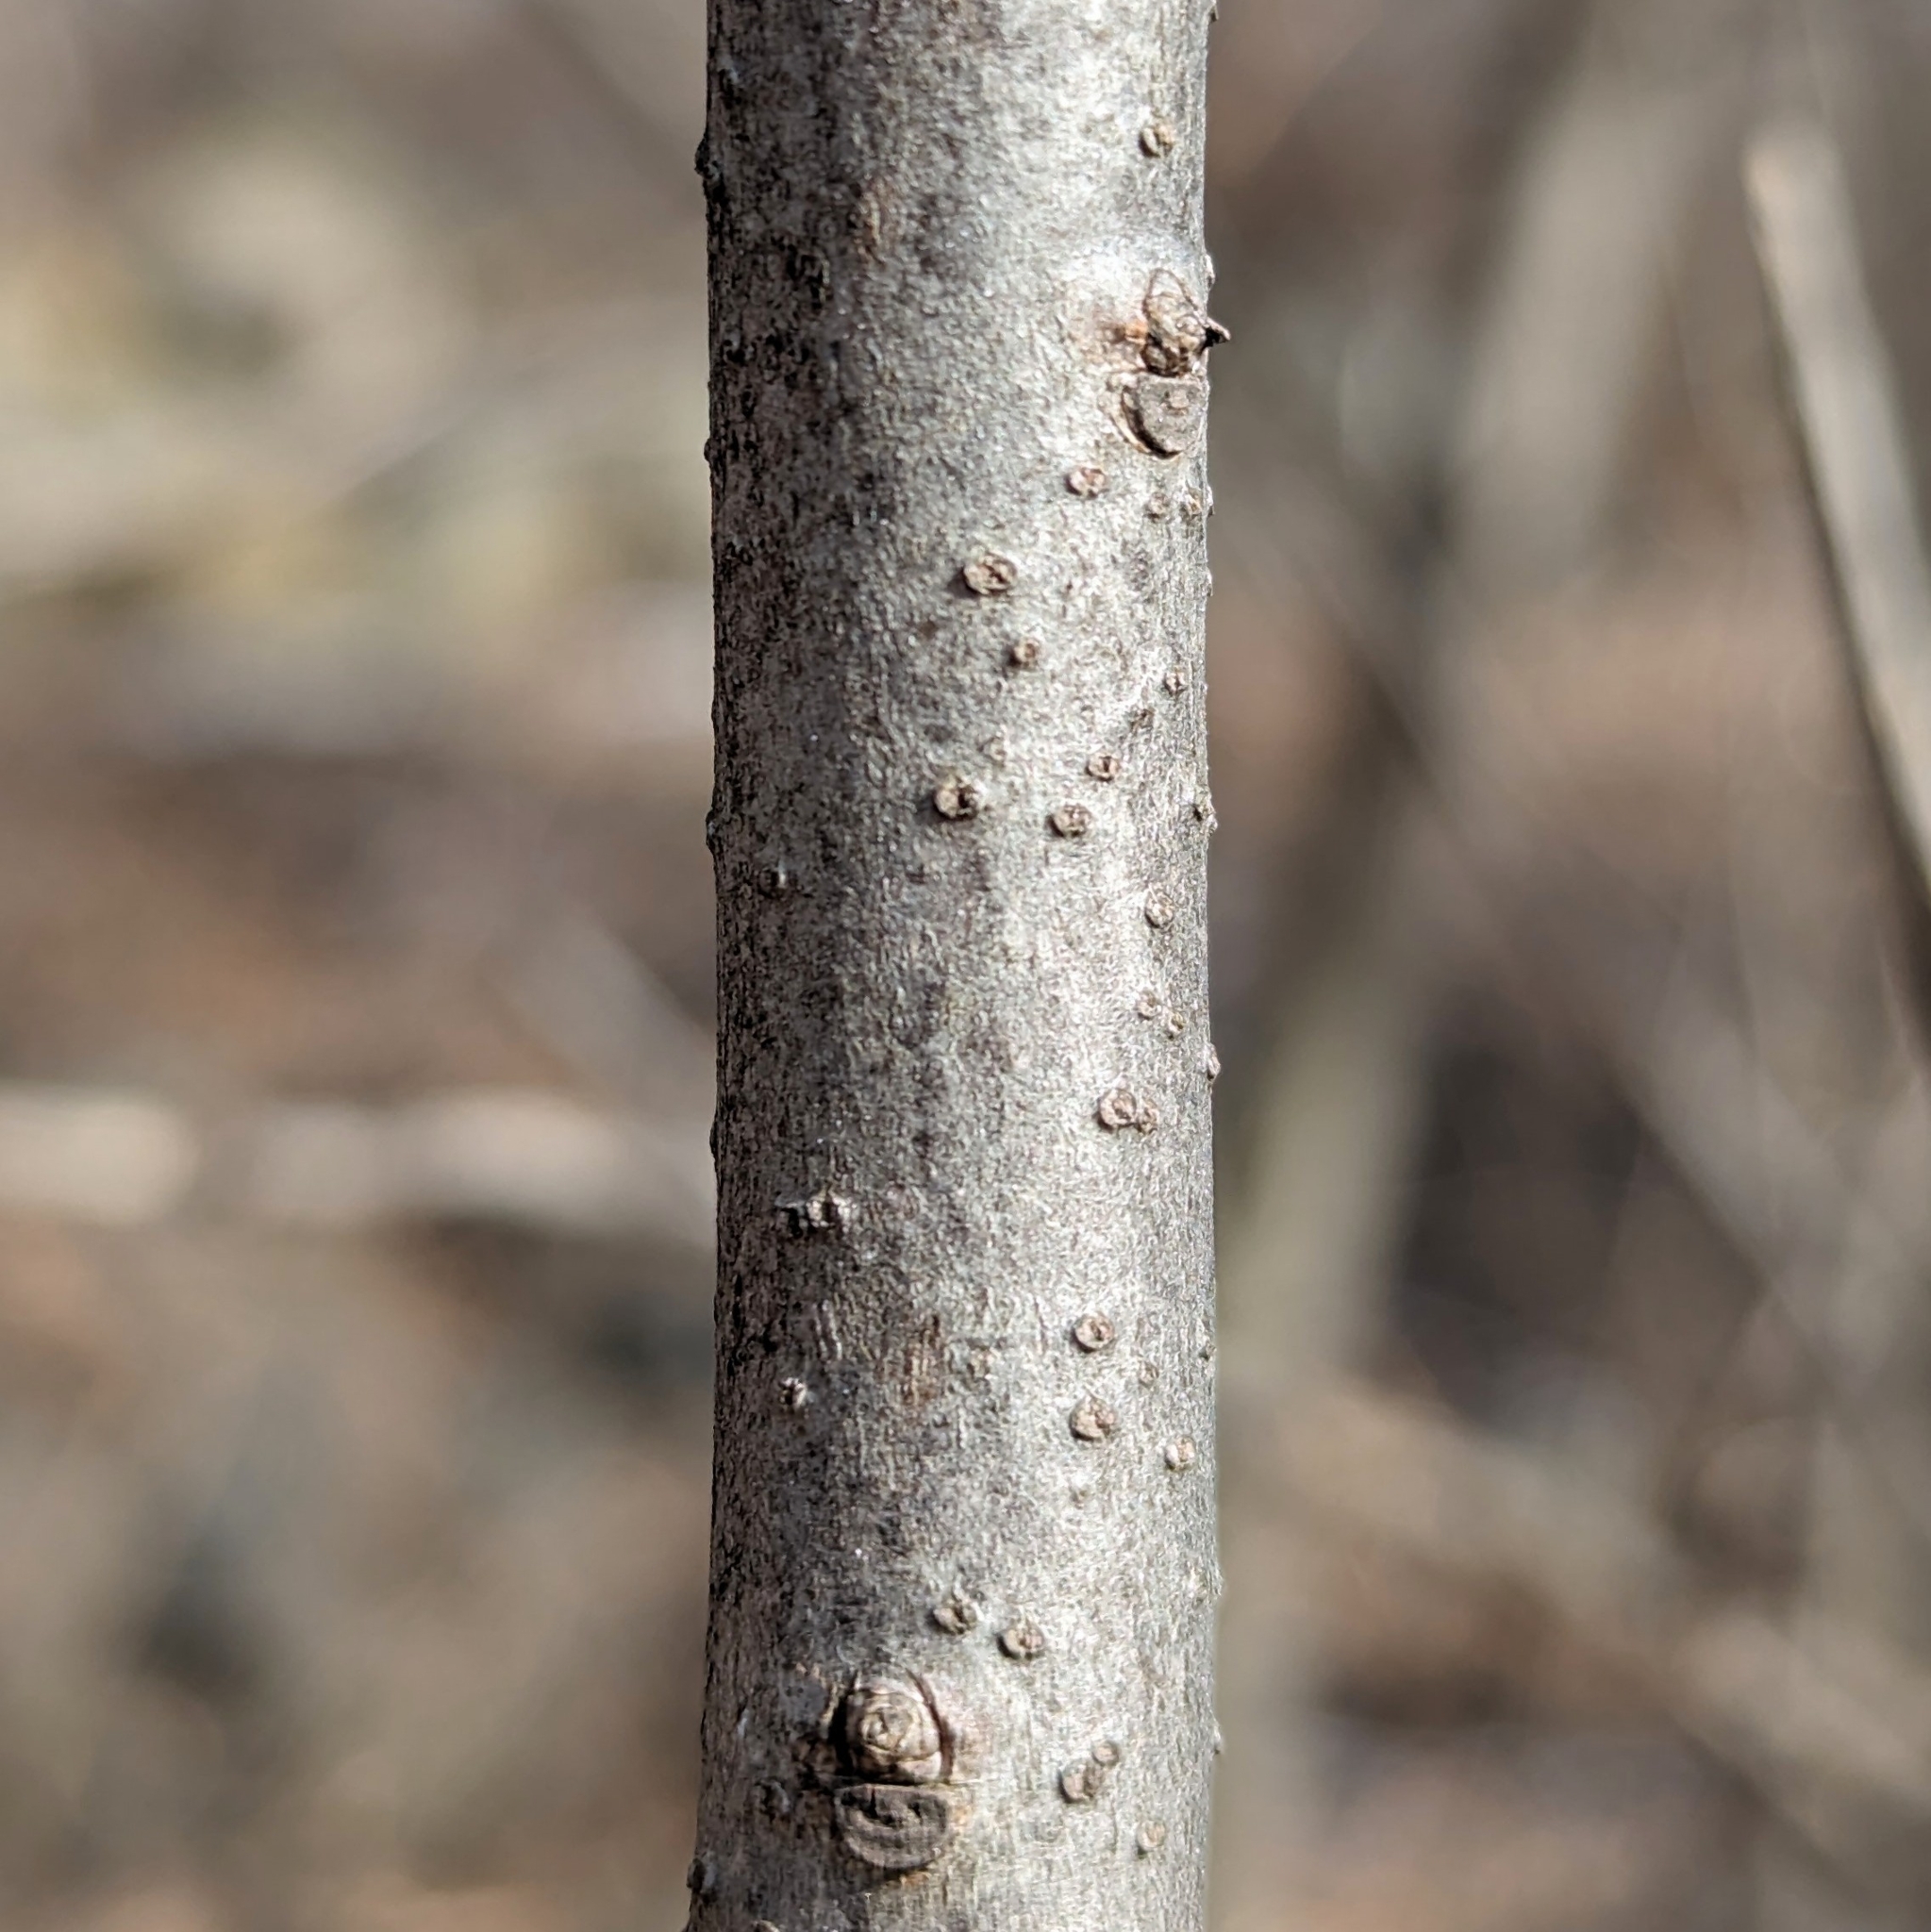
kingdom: Plantae
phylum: Tracheophyta
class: Magnoliopsida
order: Celastrales
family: Celastraceae
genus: Celastrus
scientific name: Celastrus scandens
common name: American bittersweet
